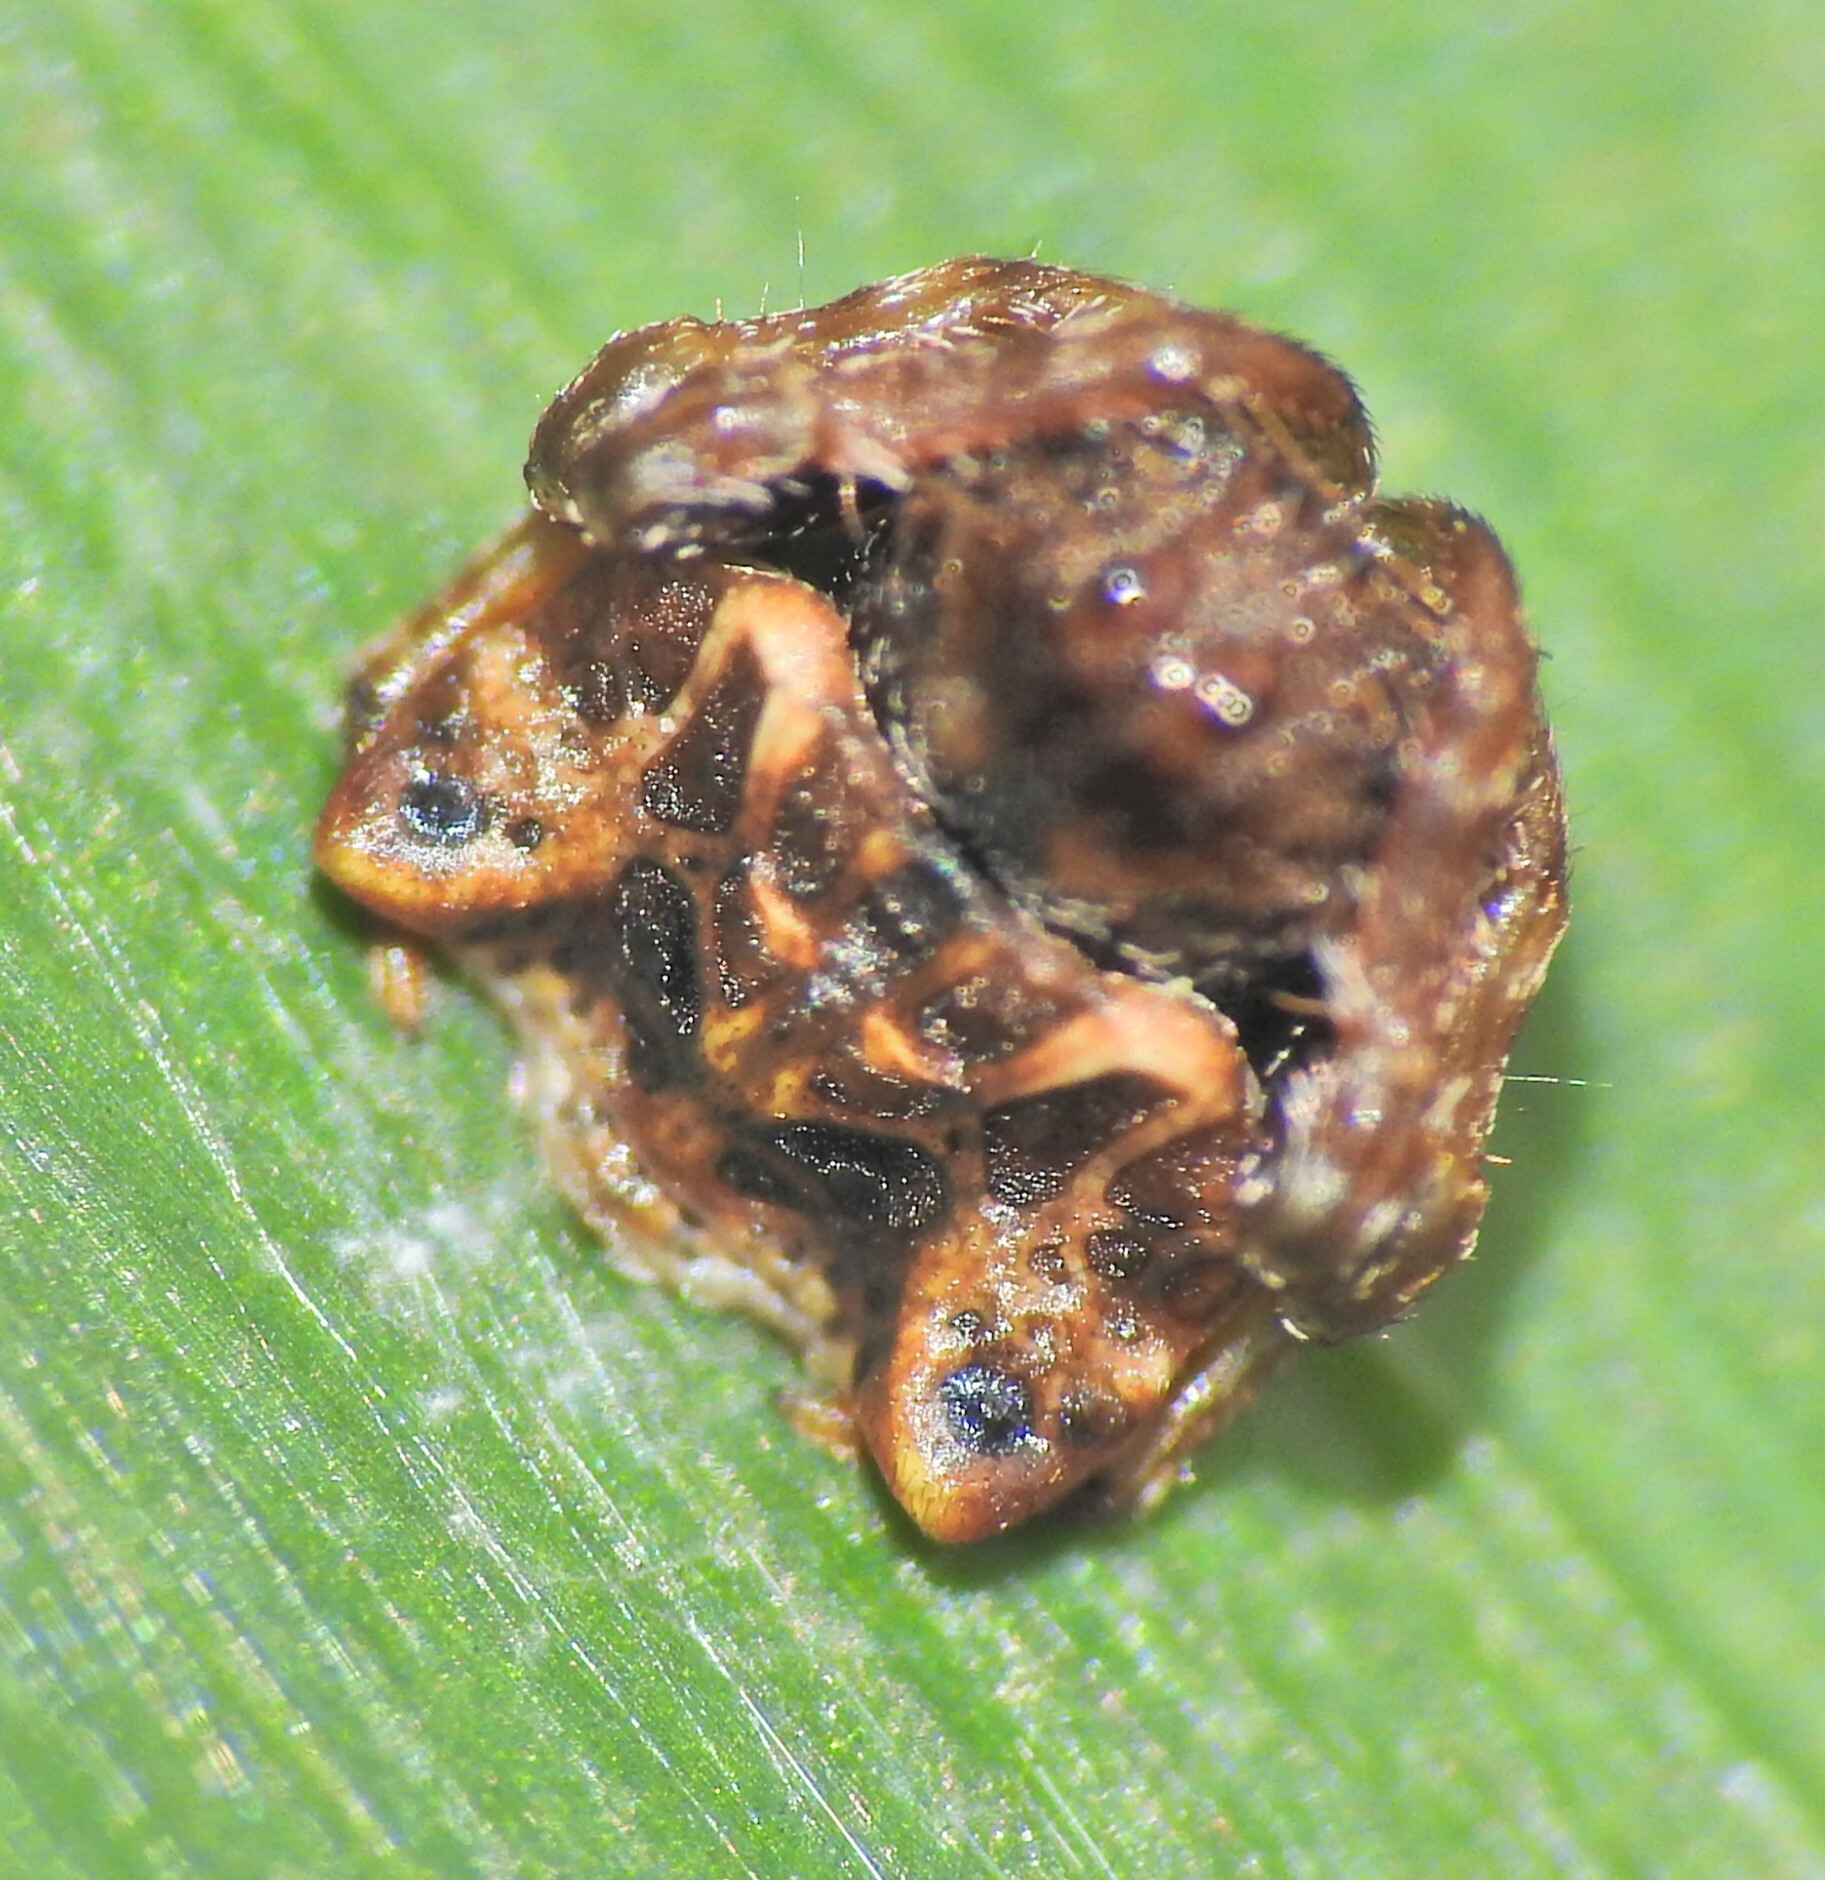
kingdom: Animalia
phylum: Arthropoda
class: Arachnida
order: Araneae
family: Arkyidae
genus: Arkys
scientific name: Arkys curtulus
